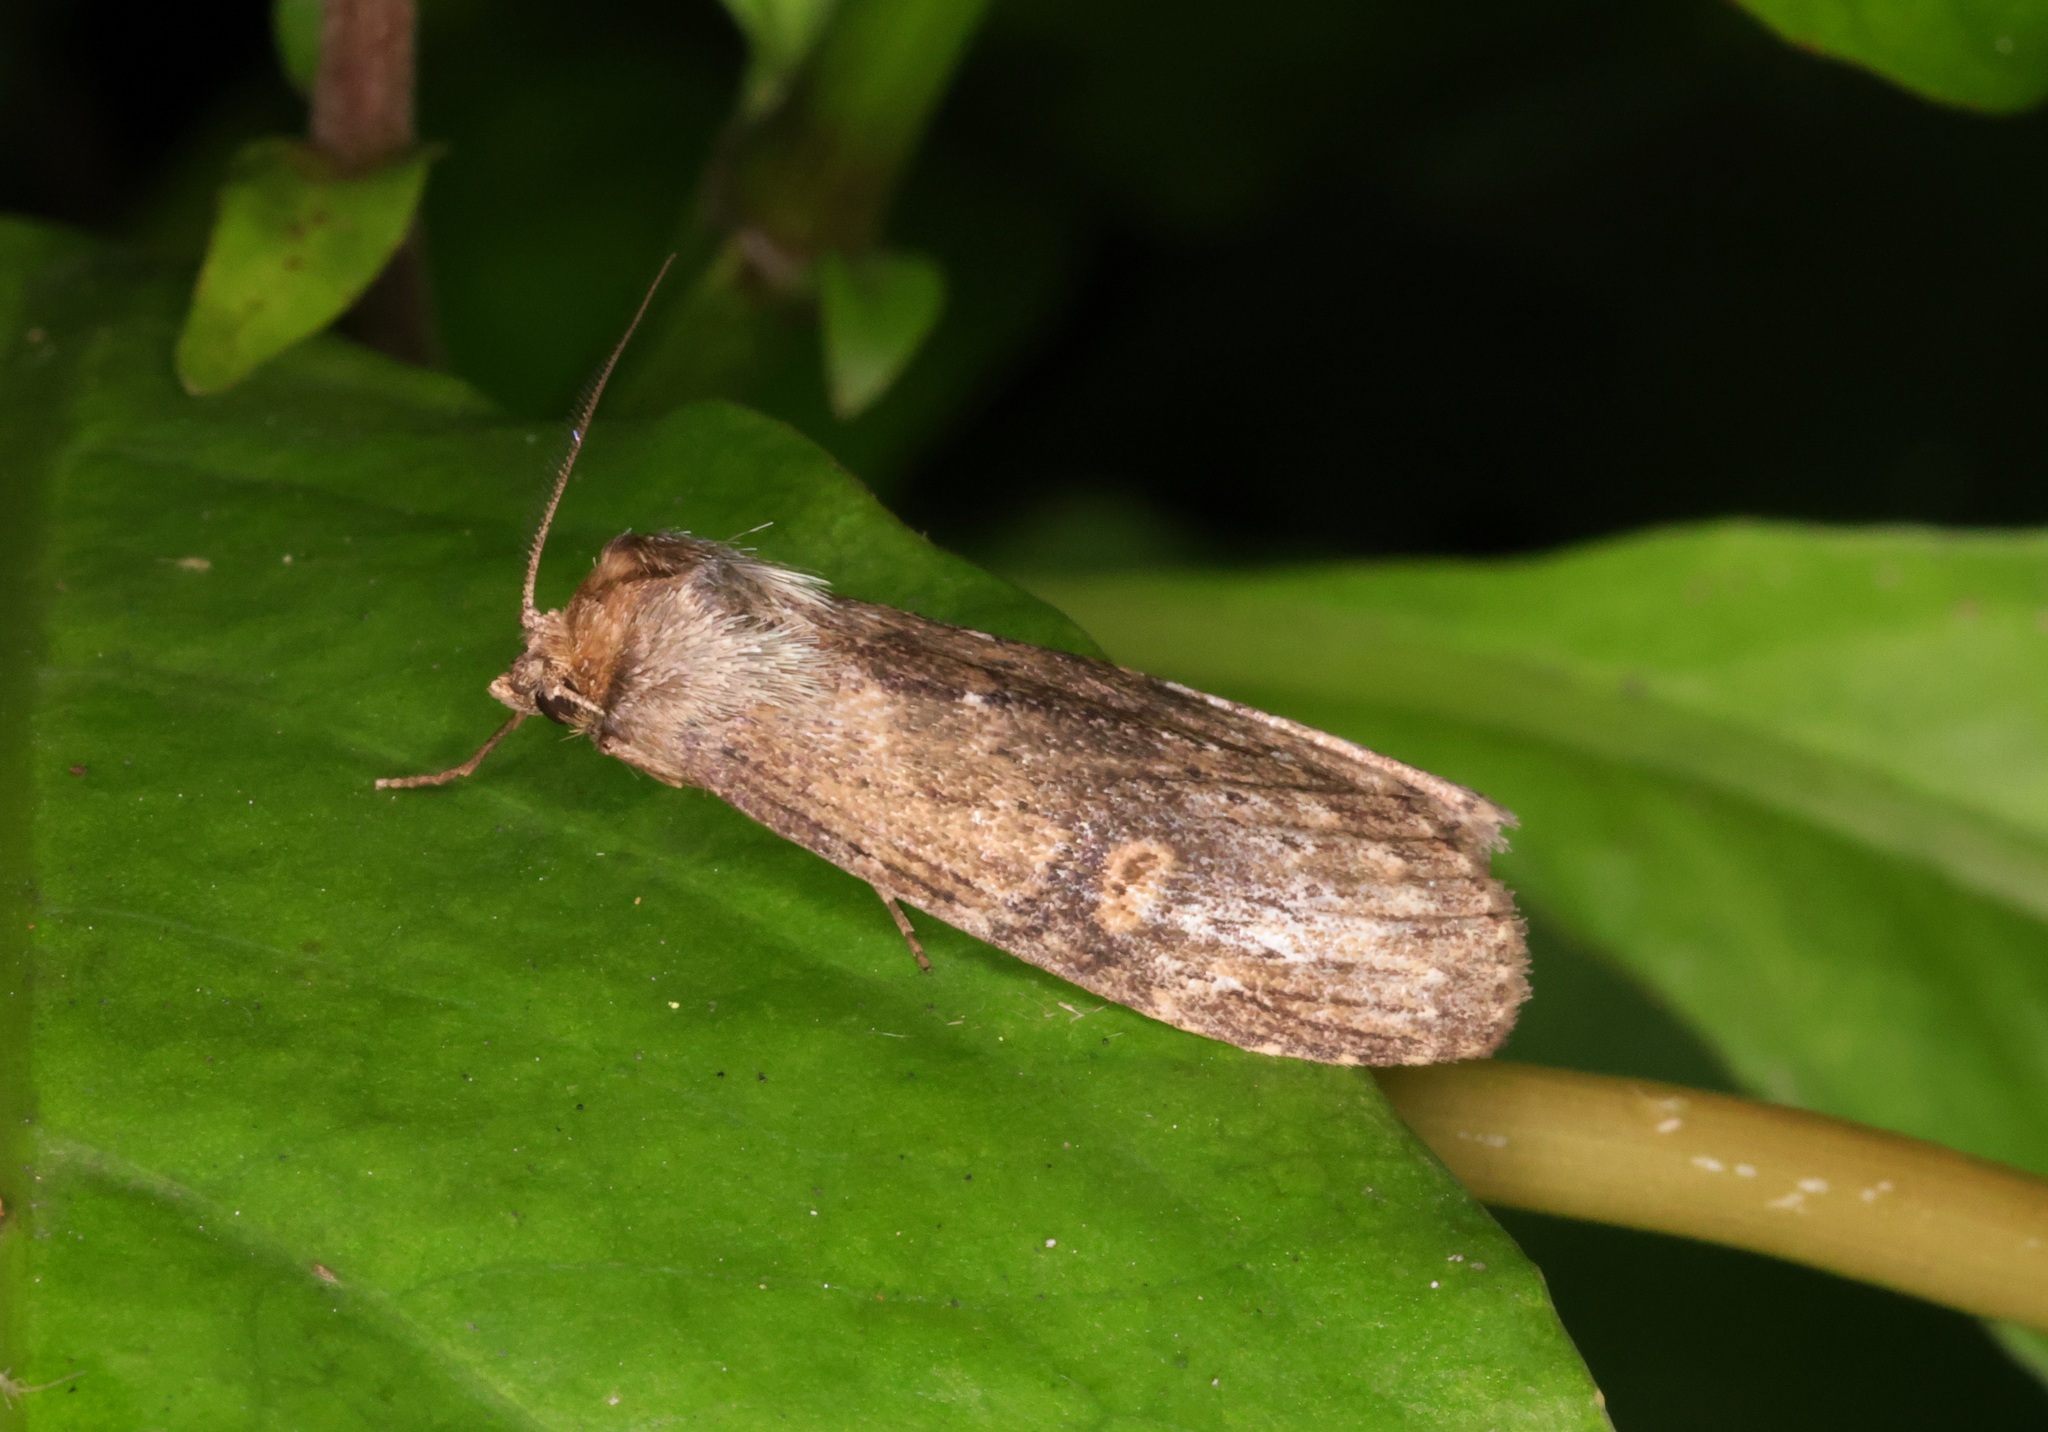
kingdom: Animalia
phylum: Arthropoda
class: Insecta
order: Lepidoptera
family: Notodontidae
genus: Porsica
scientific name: Porsica curvaria
